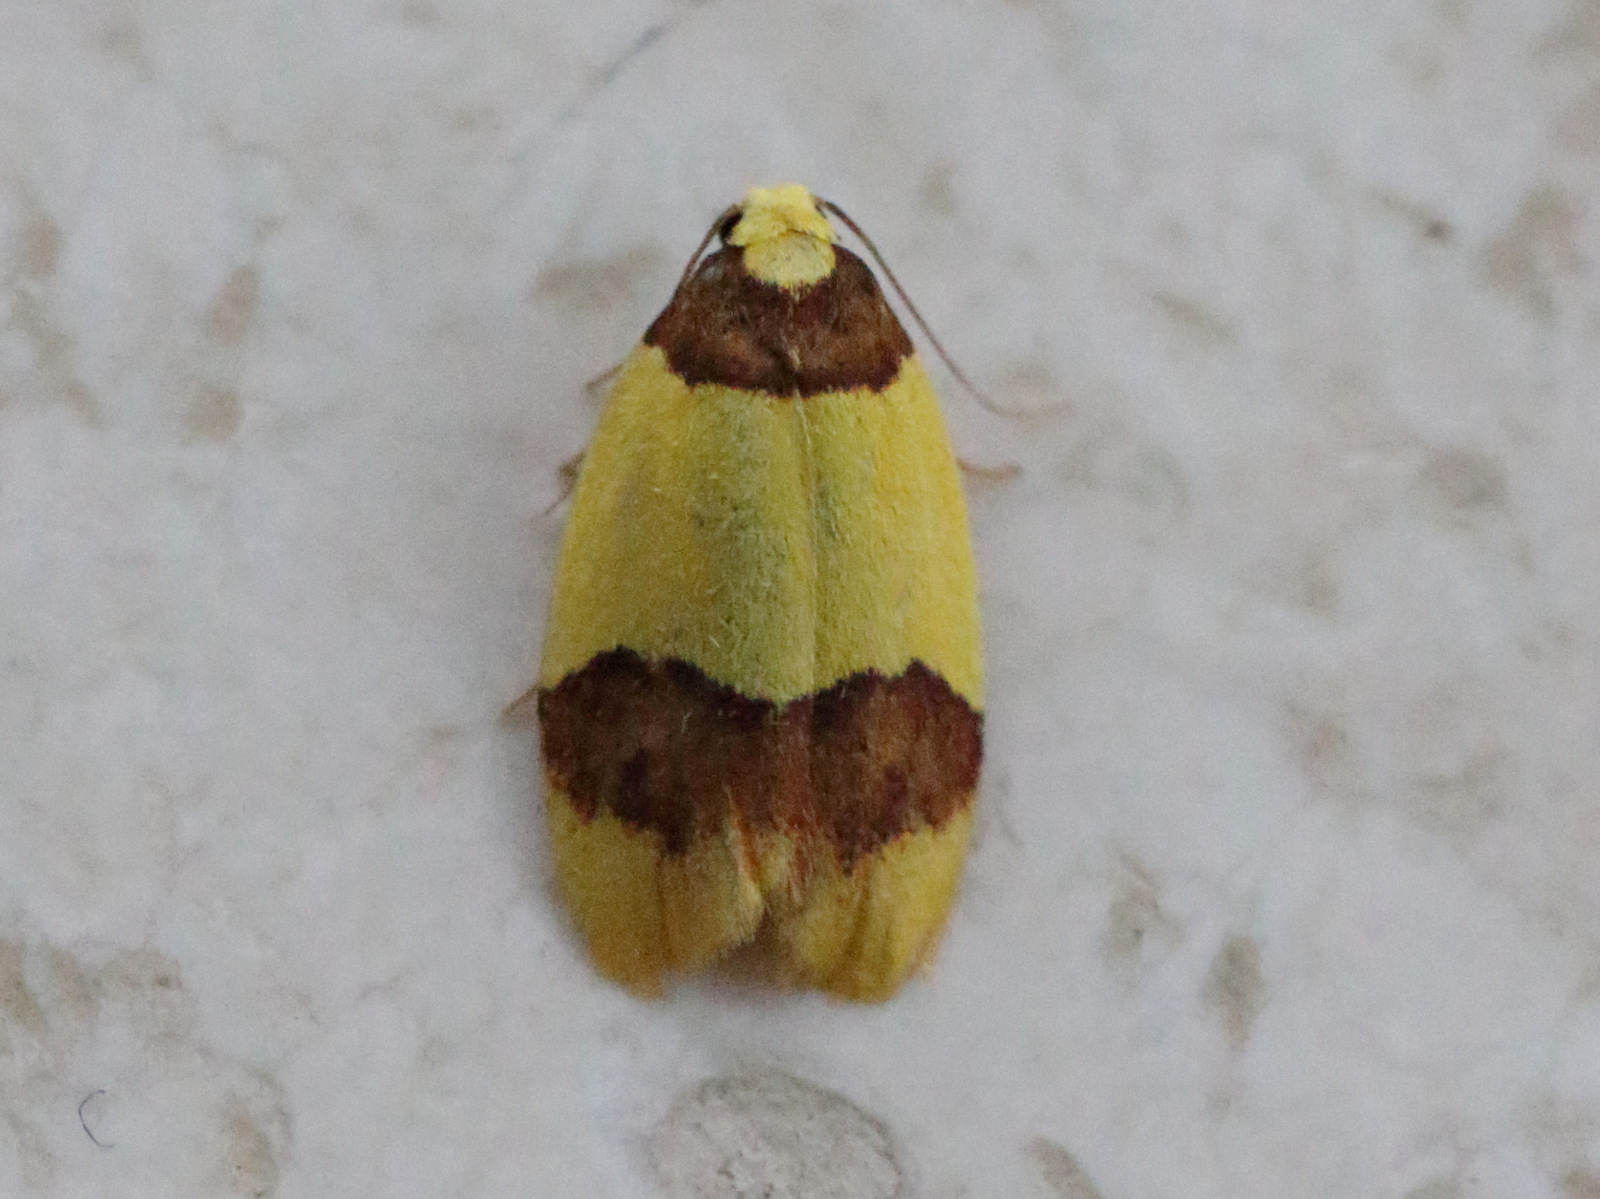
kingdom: Animalia
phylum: Arthropoda
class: Insecta
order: Lepidoptera
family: Erebidae
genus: Heterallactis
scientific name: Heterallactis euchrysa
